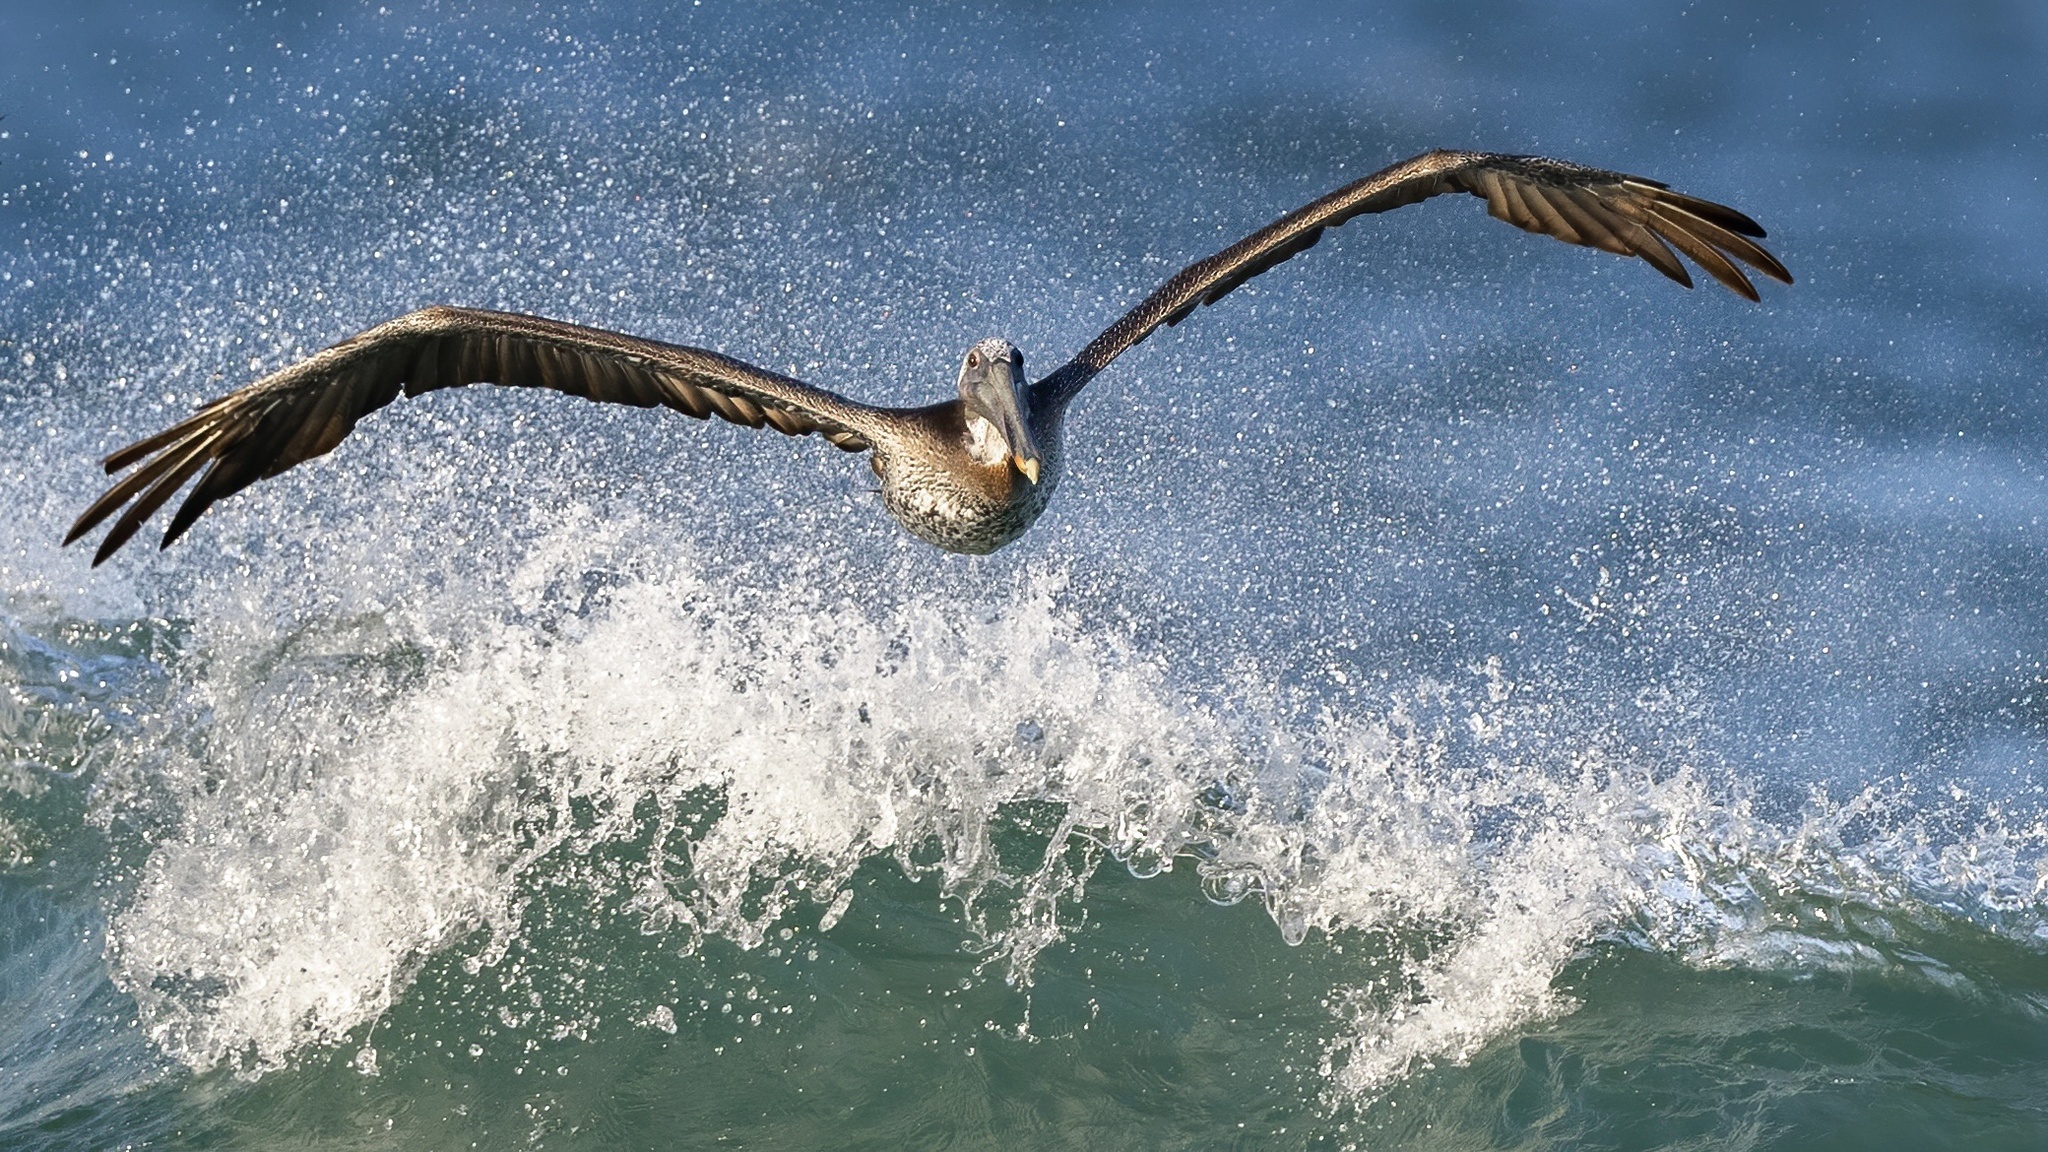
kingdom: Animalia
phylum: Chordata
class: Aves
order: Pelecaniformes
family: Pelecanidae
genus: Pelecanus
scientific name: Pelecanus occidentalis
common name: Brown pelican
